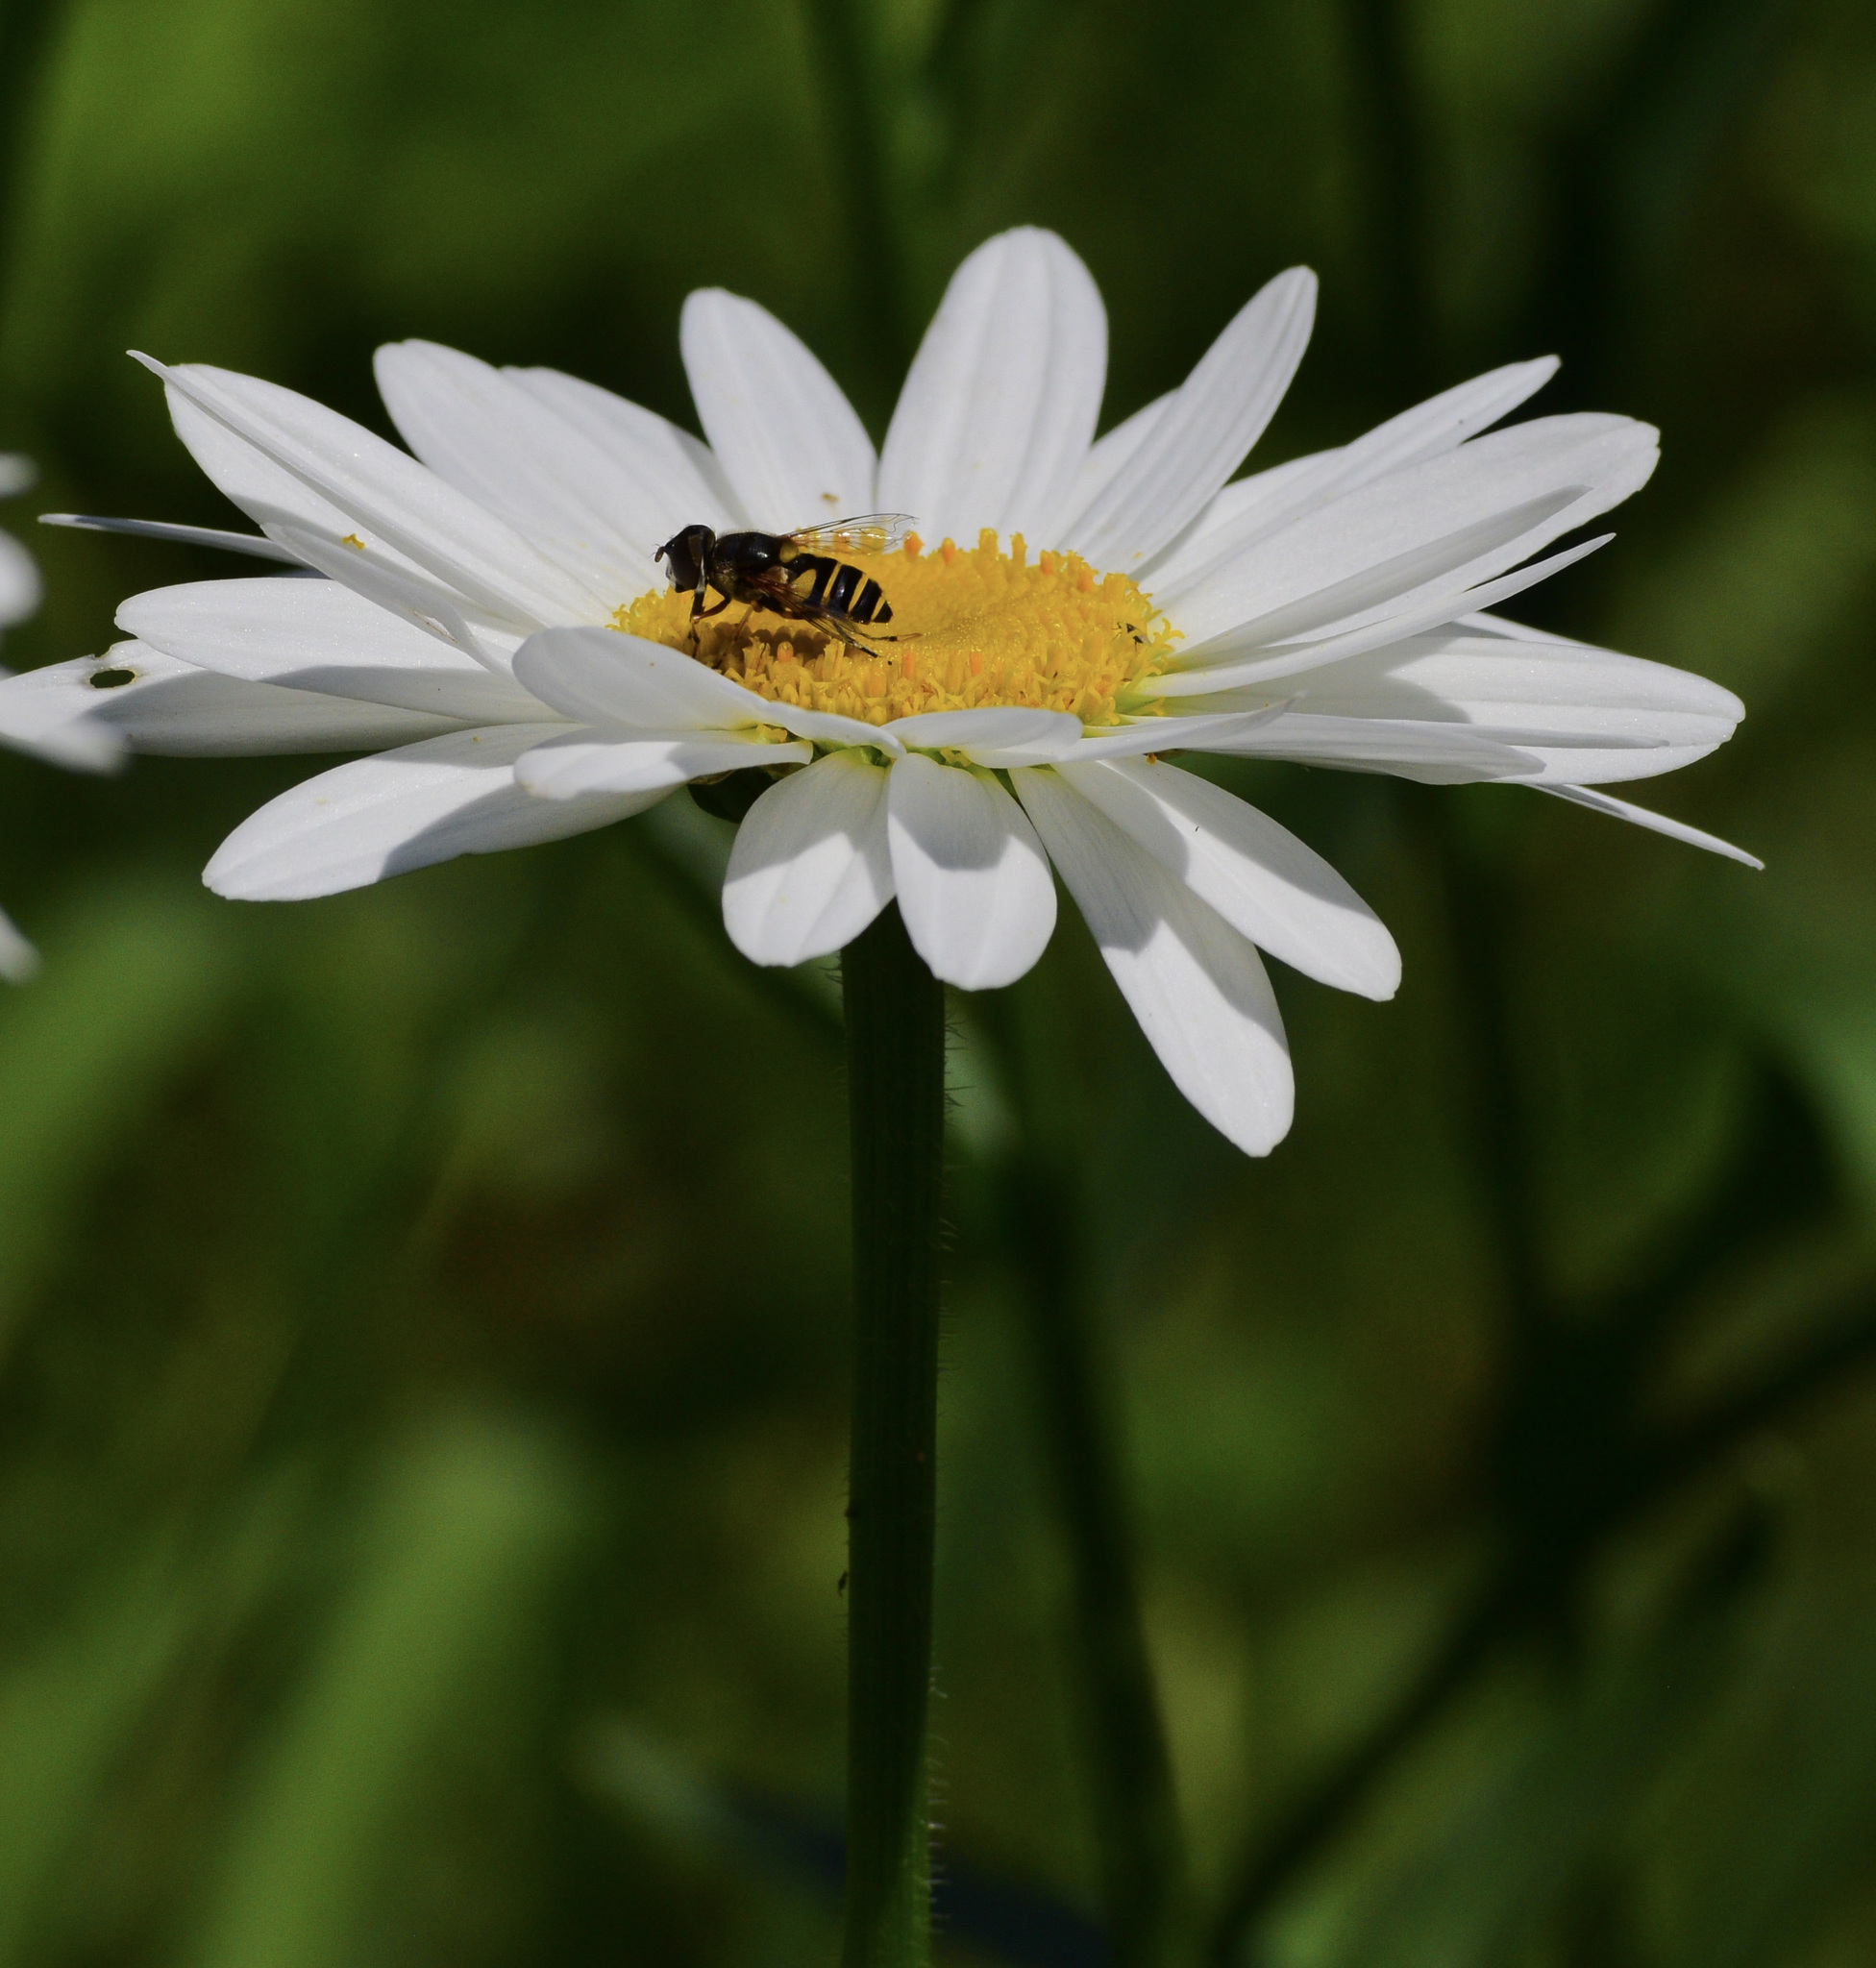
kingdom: Animalia
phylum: Arthropoda
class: Insecta
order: Diptera
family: Syrphidae
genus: Eristalis
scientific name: Eristalis transversa
